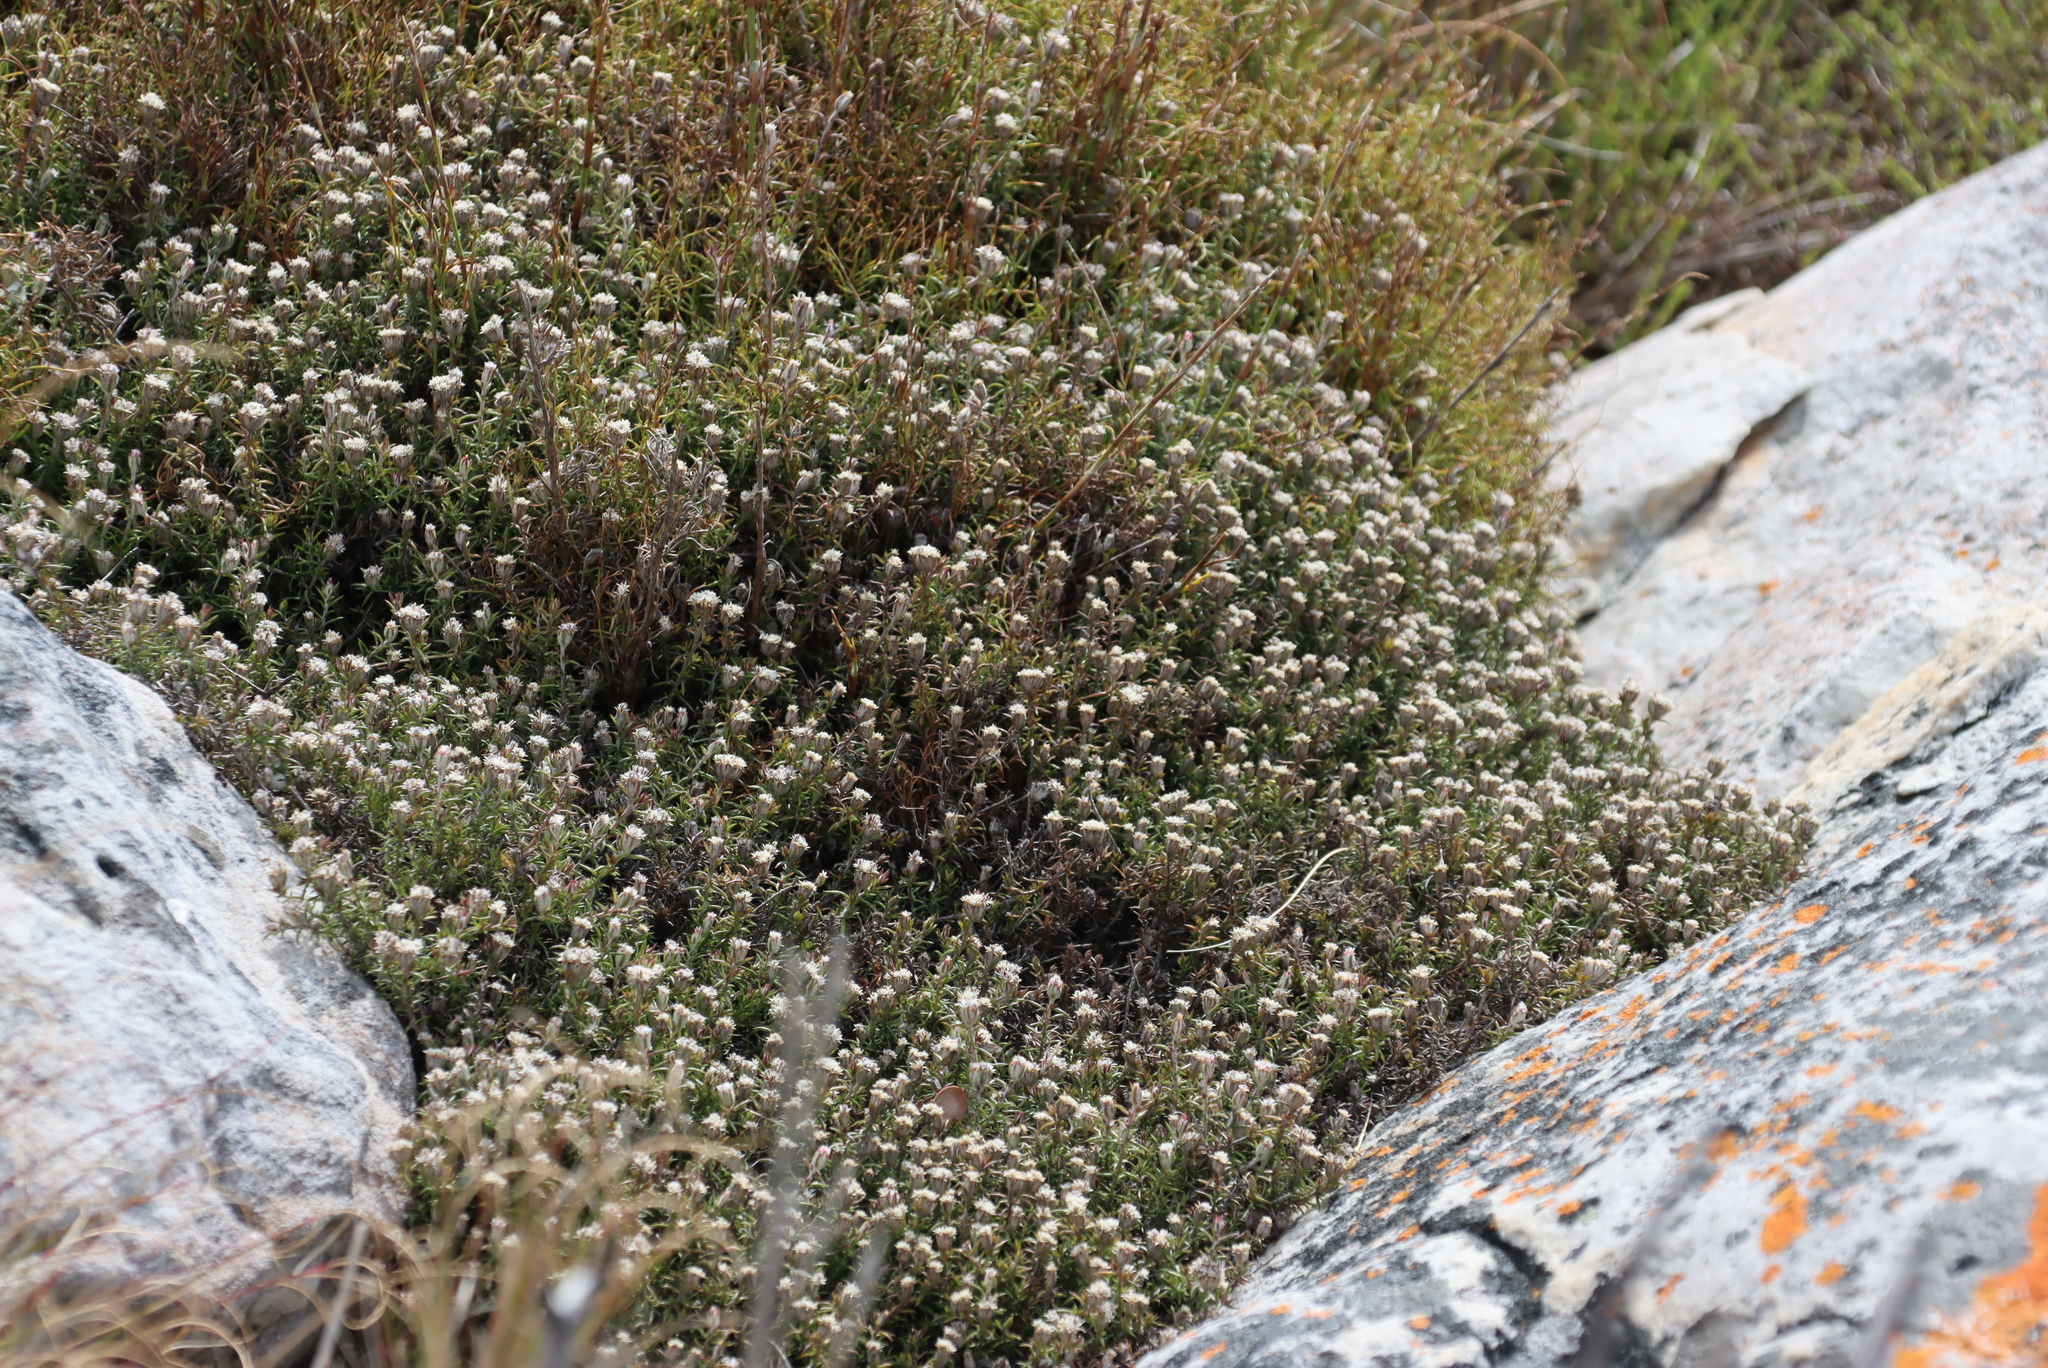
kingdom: Plantae
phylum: Tracheophyta
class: Magnoliopsida
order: Asterales
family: Asteraceae
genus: Metalasia
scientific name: Metalasia divergens
